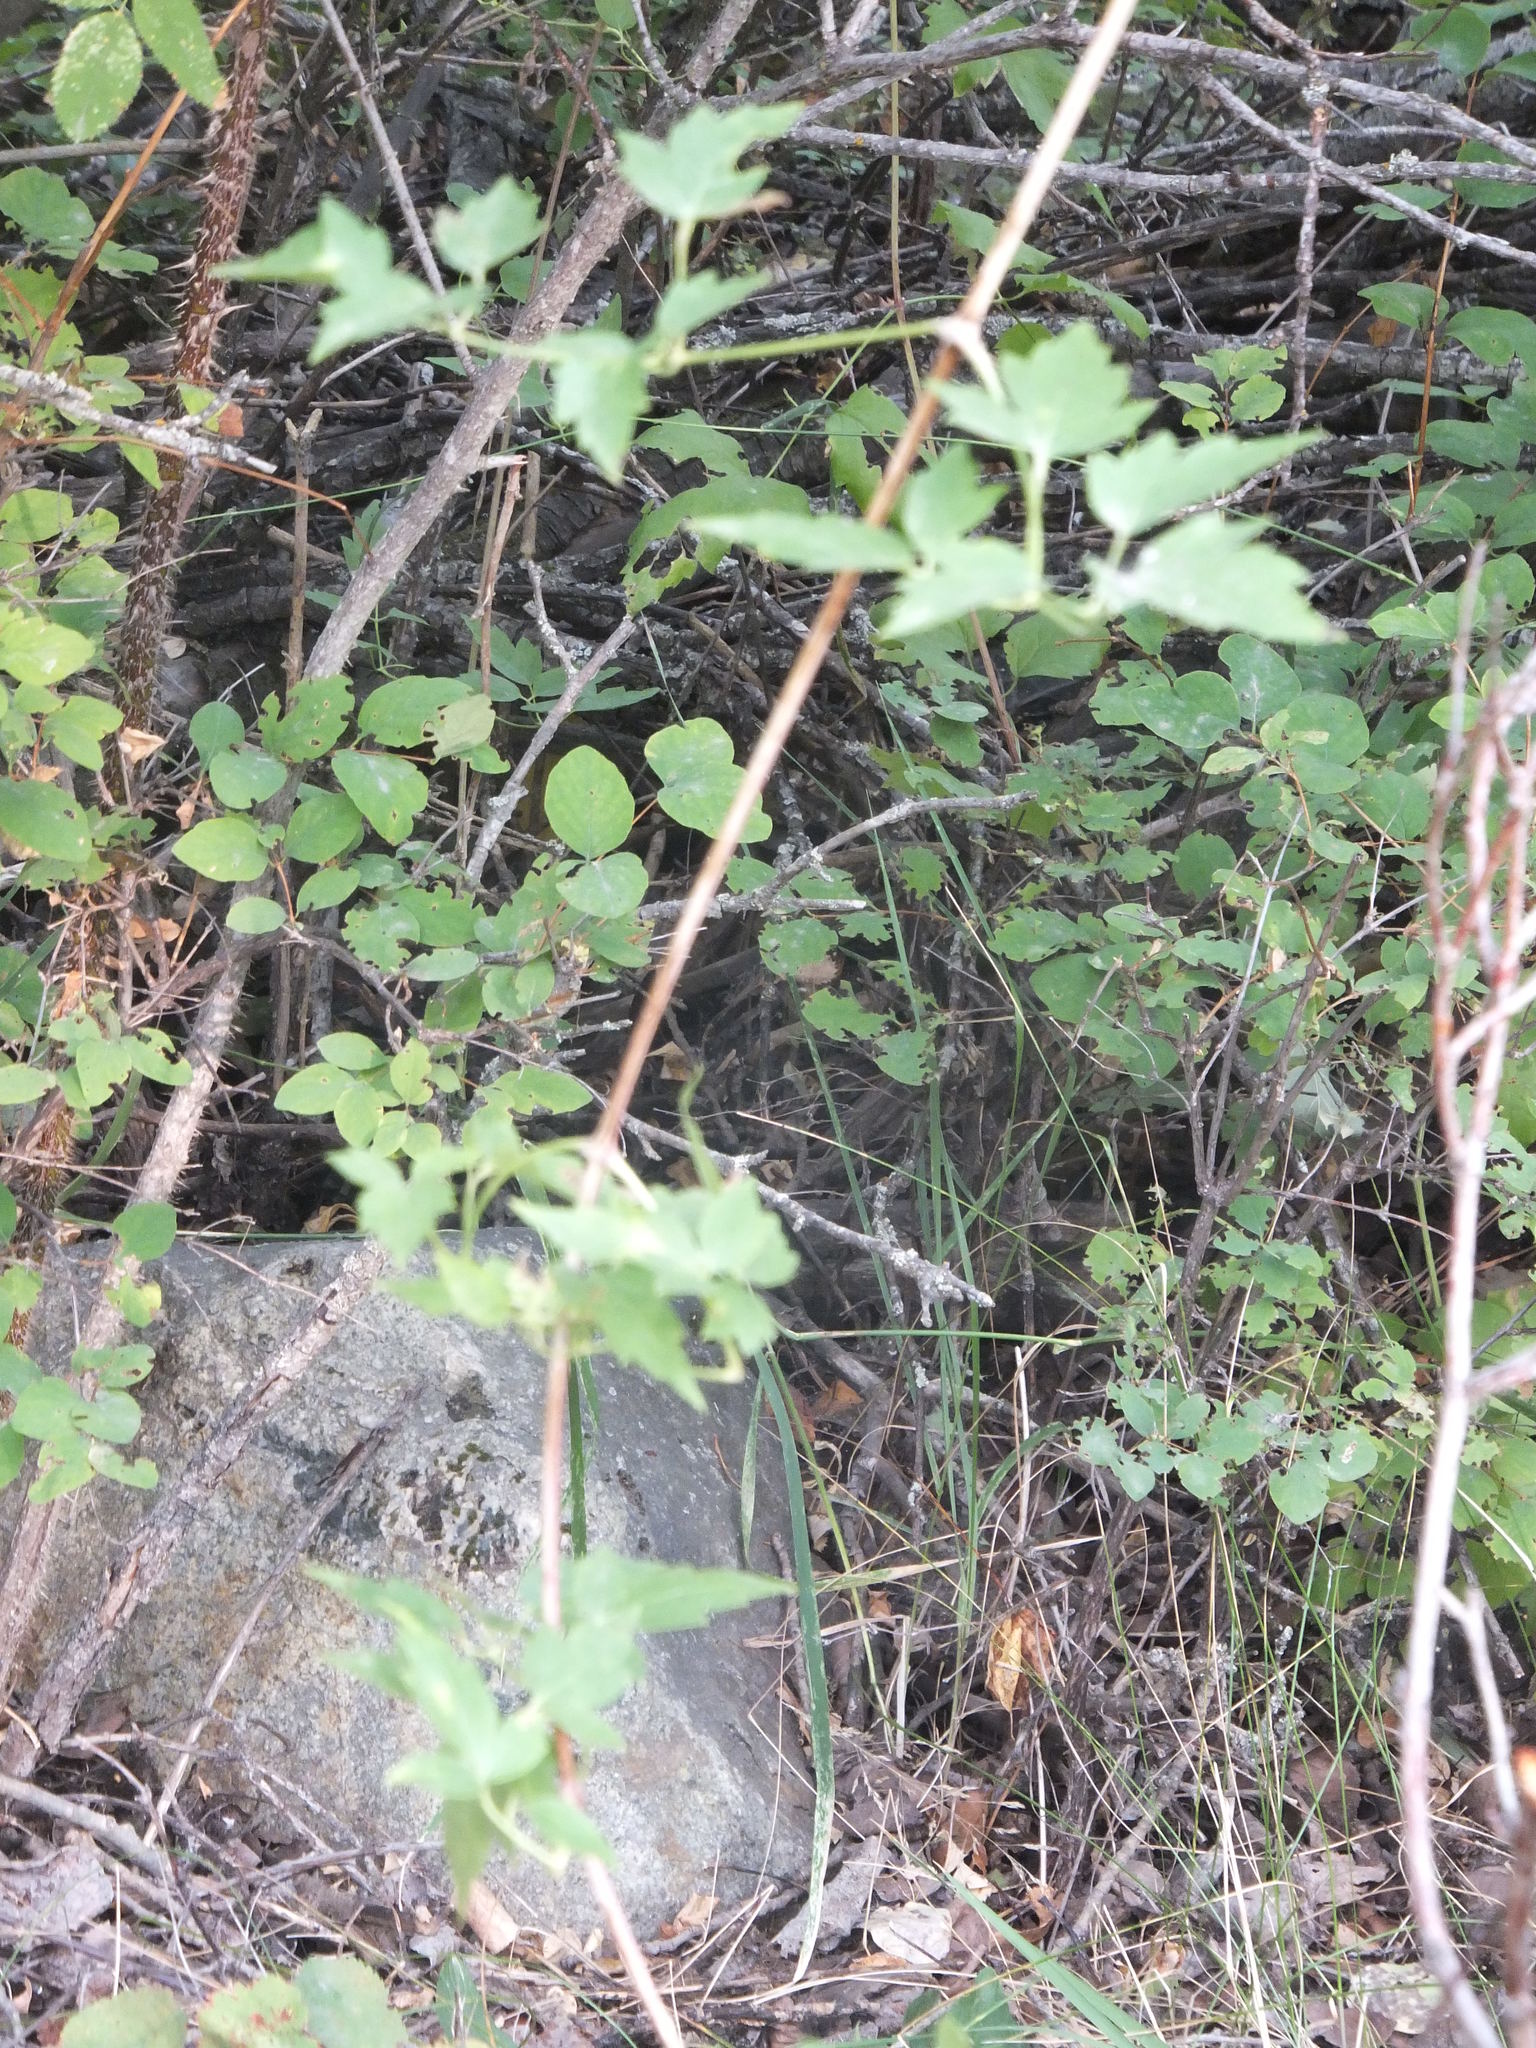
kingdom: Plantae
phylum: Tracheophyta
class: Magnoliopsida
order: Ranunculales
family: Ranunculaceae
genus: Clematis
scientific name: Clematis ligusticifolia
